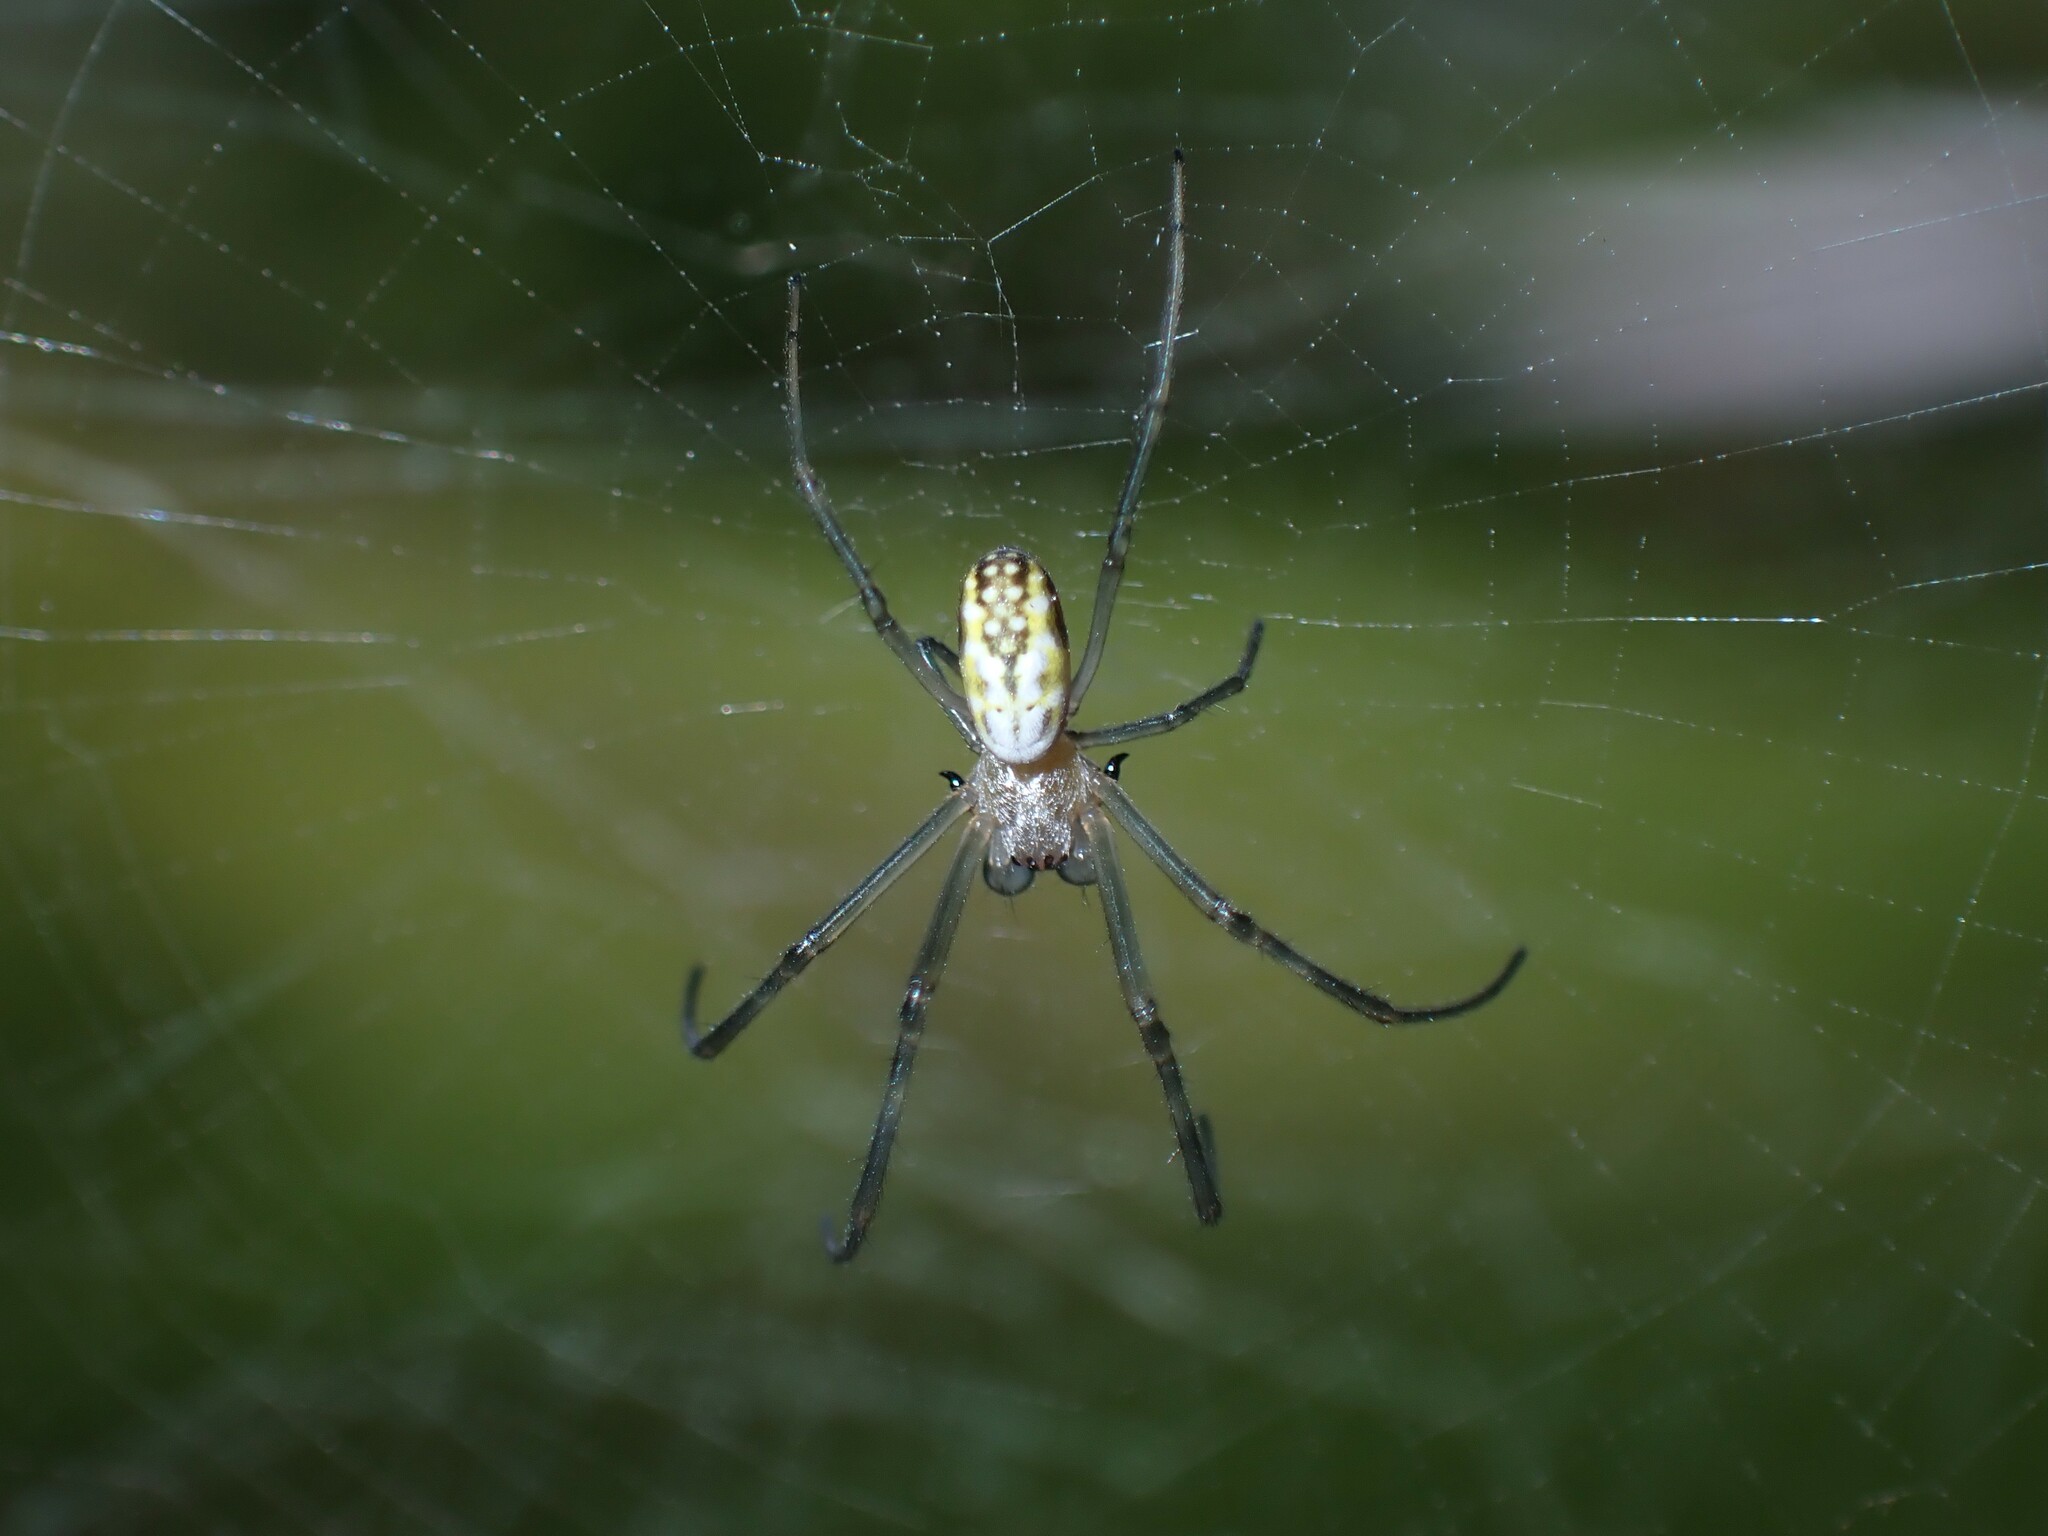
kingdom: Animalia
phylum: Arthropoda
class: Arachnida
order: Araneae
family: Araneidae
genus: Trichonephila
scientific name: Trichonephila plumipes
